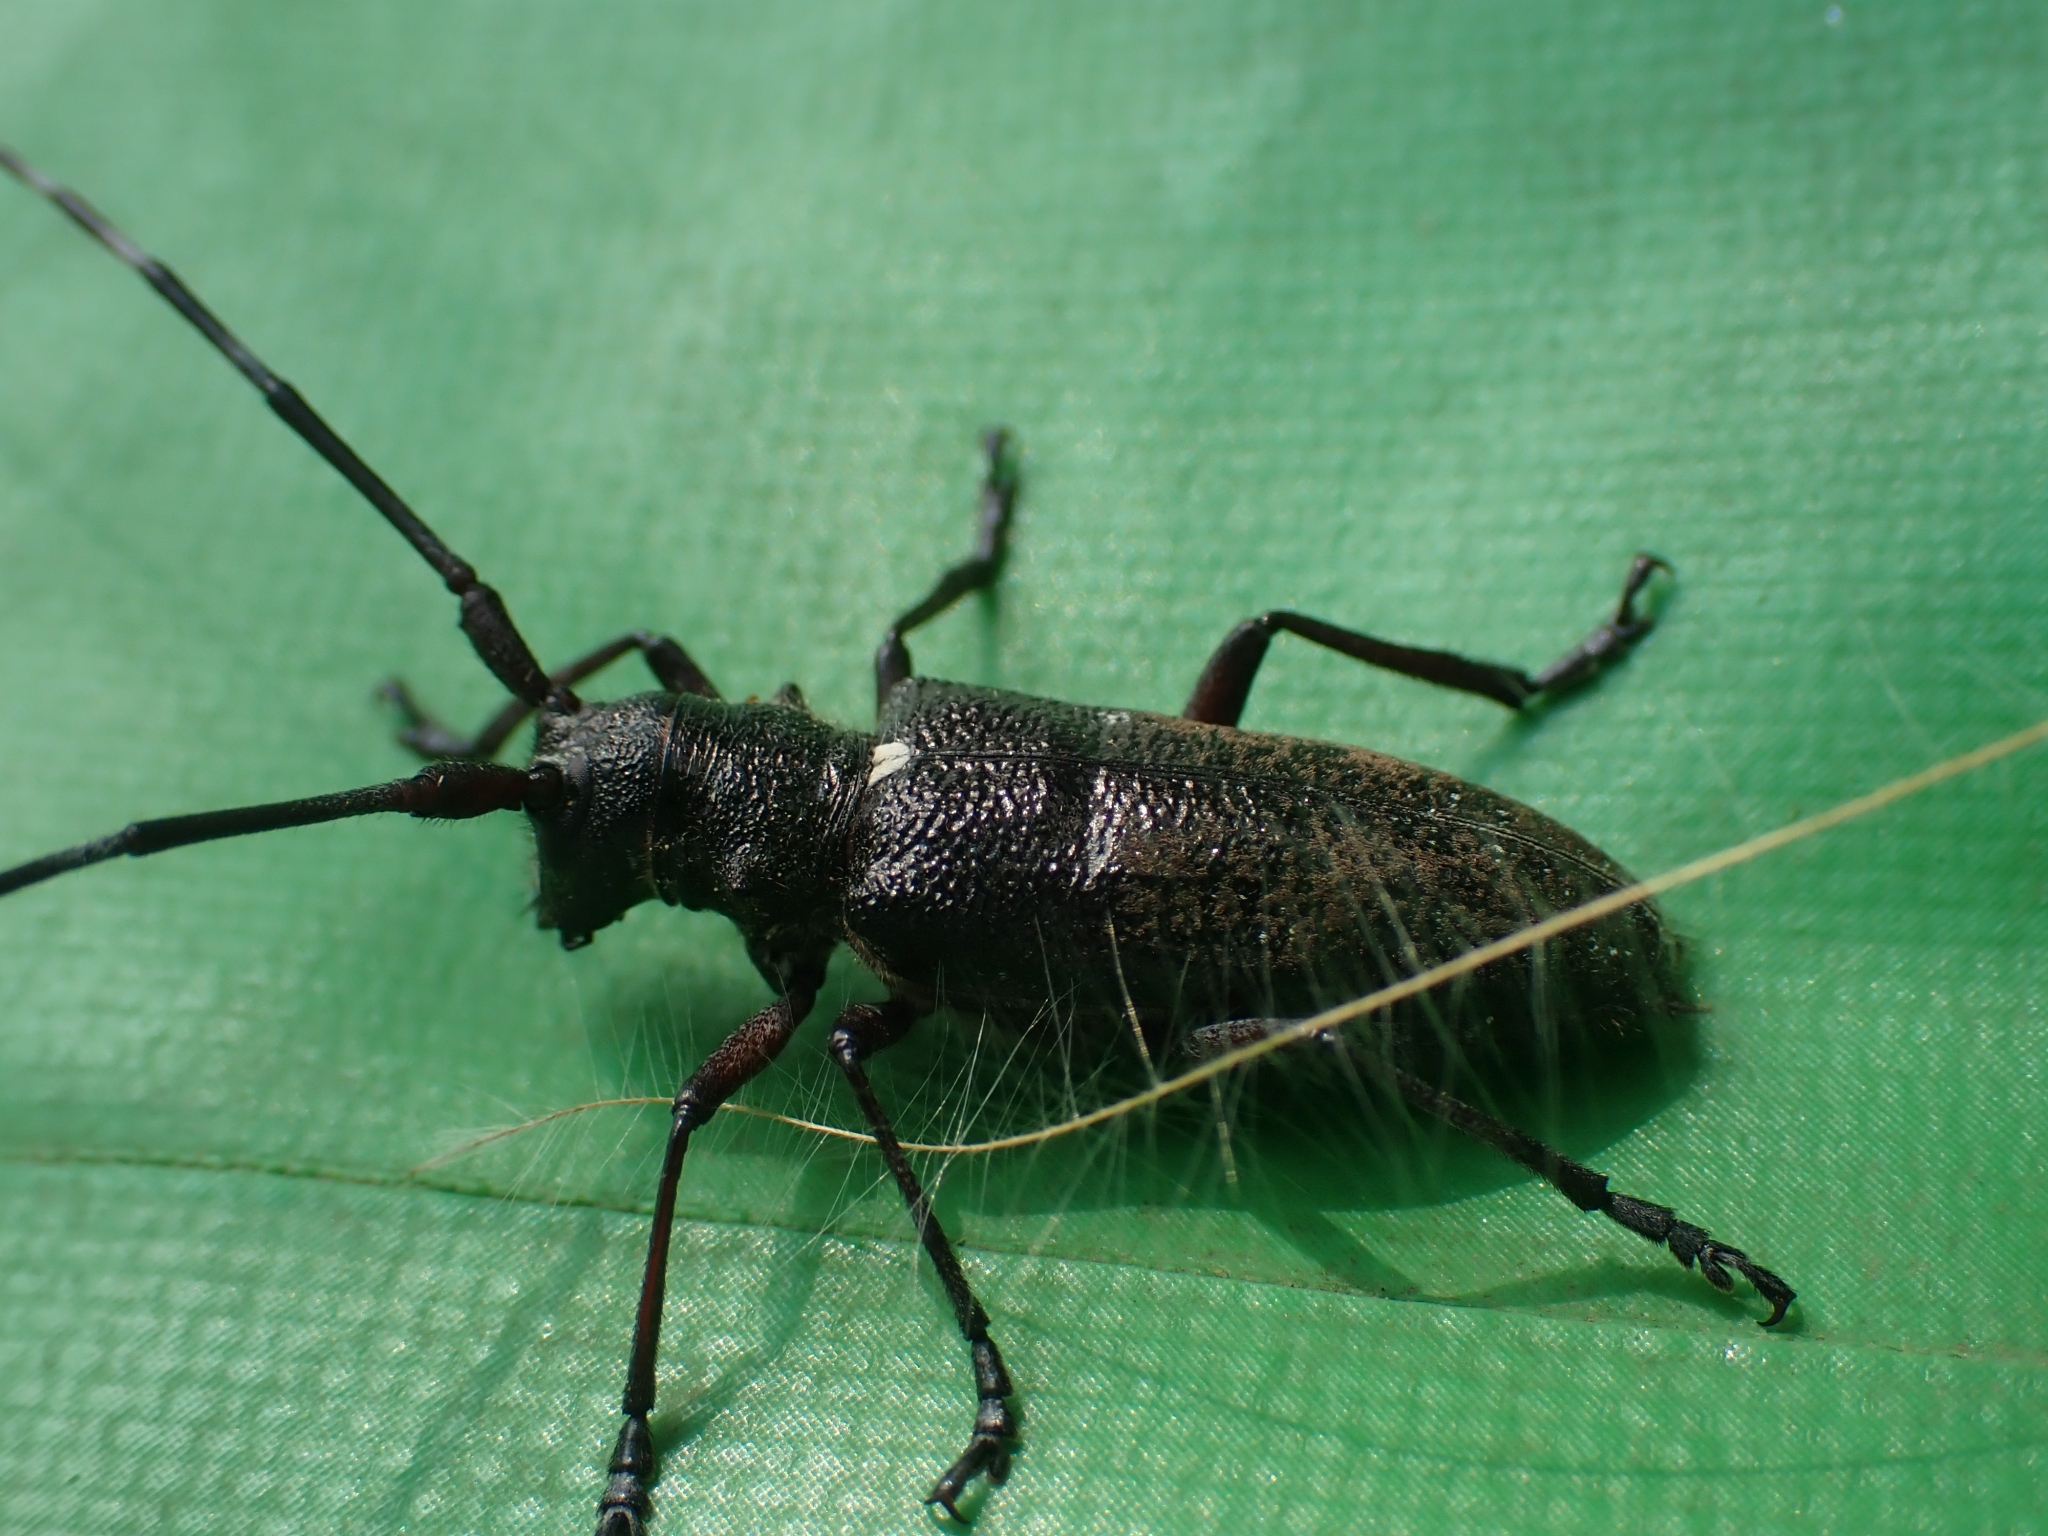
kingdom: Animalia
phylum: Arthropoda
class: Insecta
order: Coleoptera
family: Cerambycidae
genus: Monochamus
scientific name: Monochamus scutellatus
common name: White-spotted sawyer beetle
